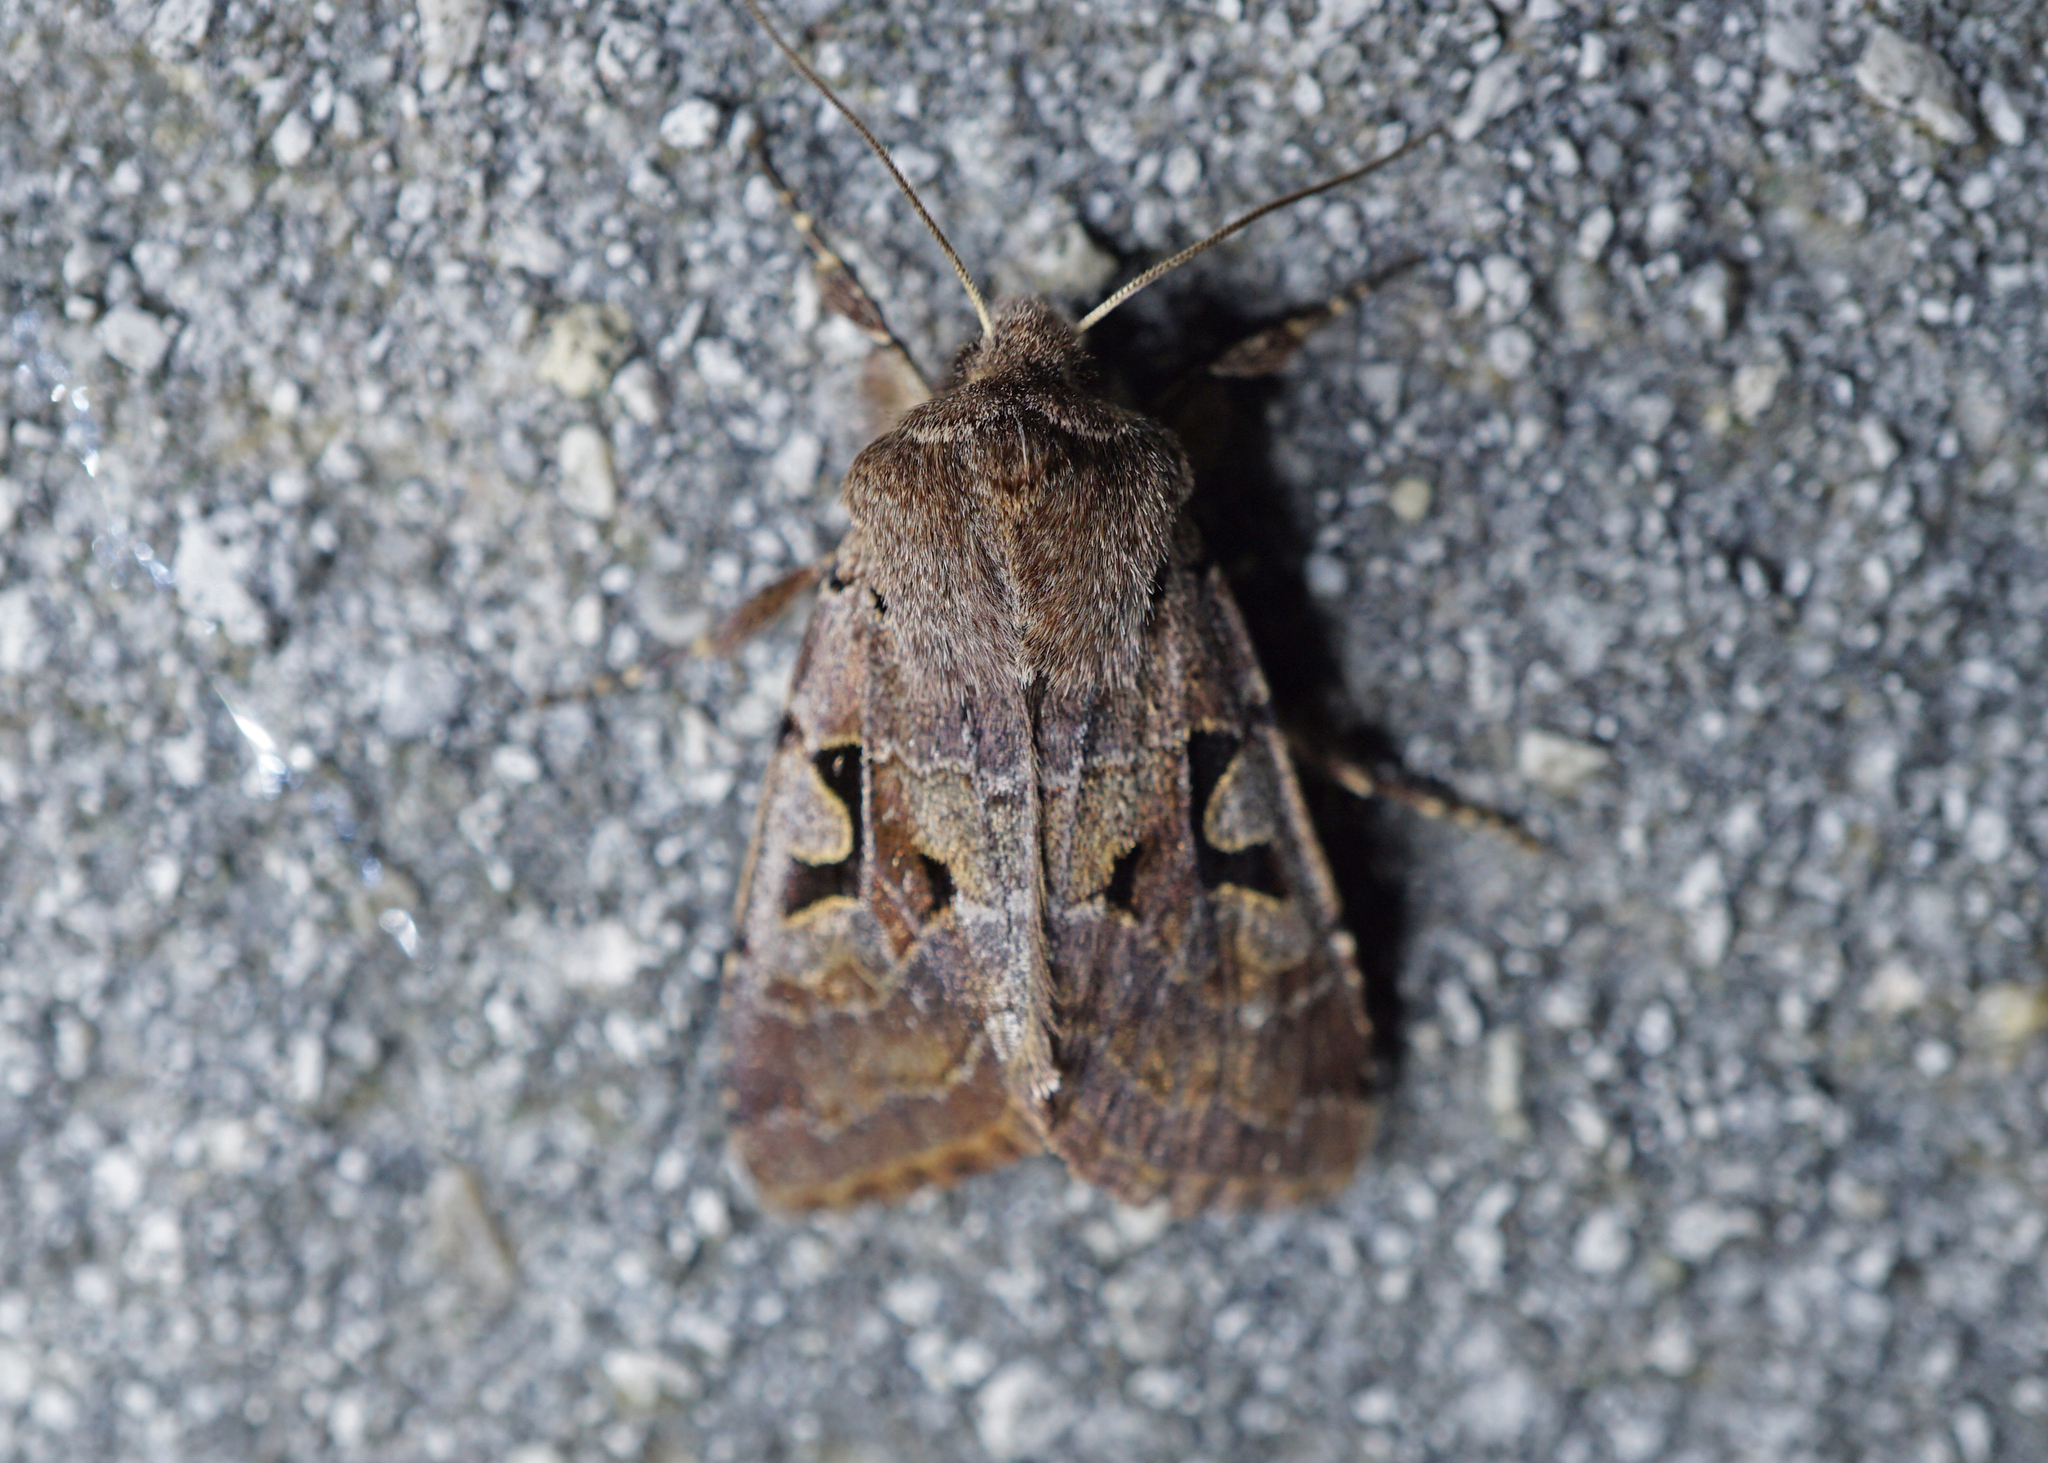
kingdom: Animalia
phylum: Arthropoda
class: Insecta
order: Lepidoptera
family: Noctuidae
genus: Orthosia
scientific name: Orthosia gothica
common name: Hebrew character
